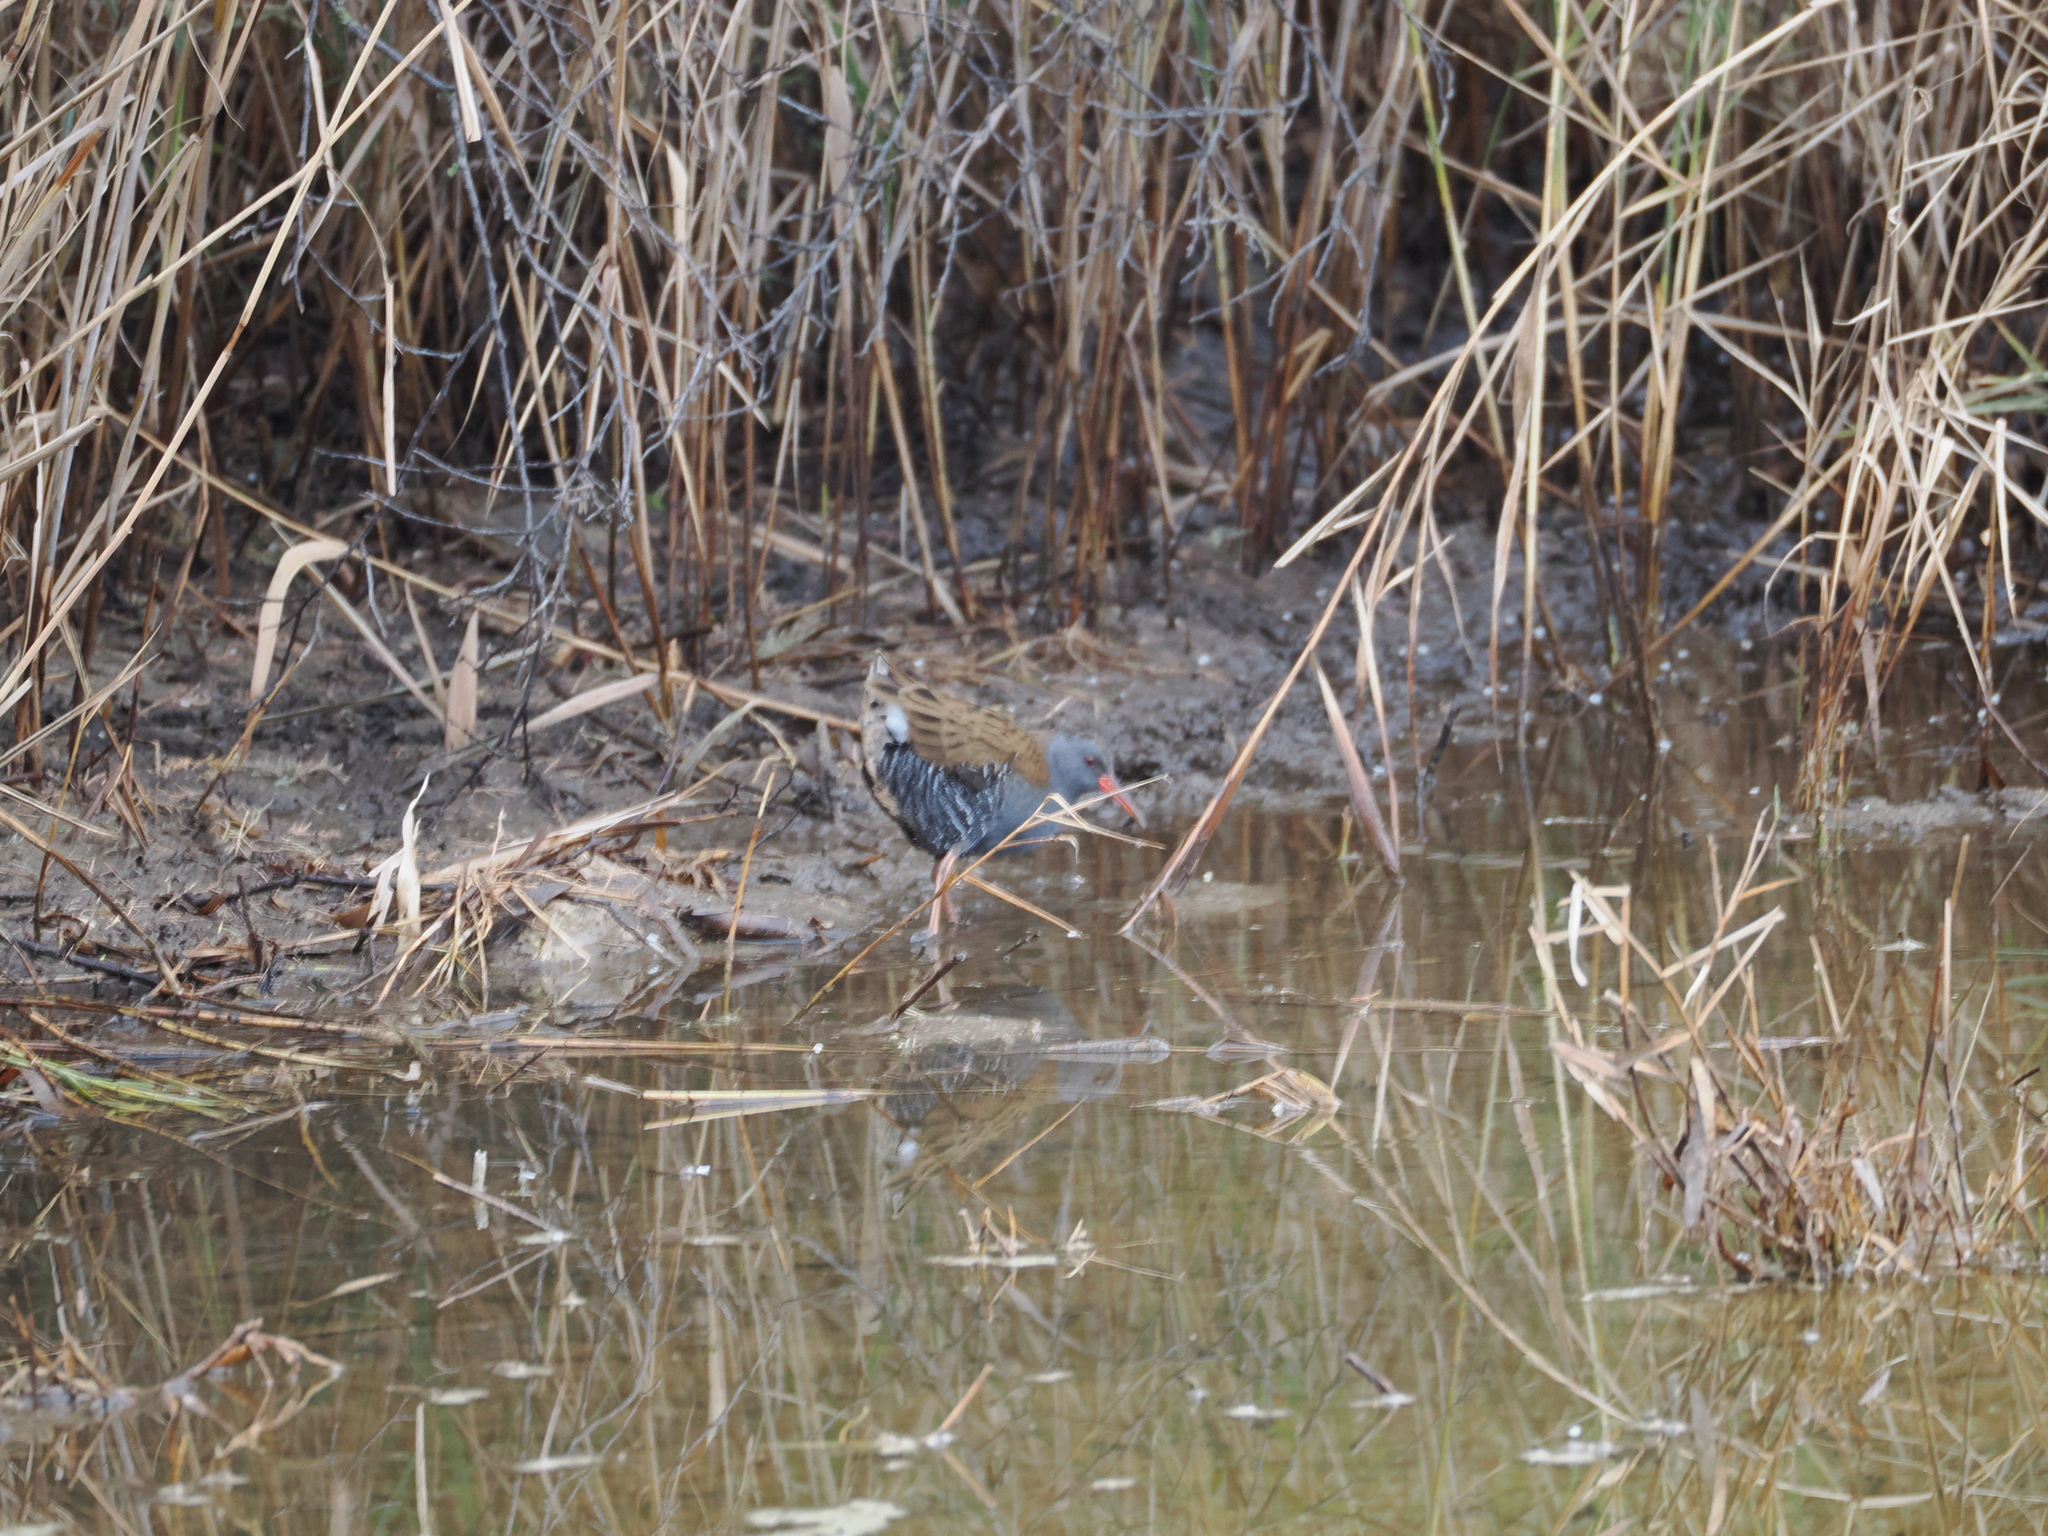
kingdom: Animalia
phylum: Chordata
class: Aves
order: Gruiformes
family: Rallidae
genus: Rallus
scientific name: Rallus aquaticus
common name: Water rail
